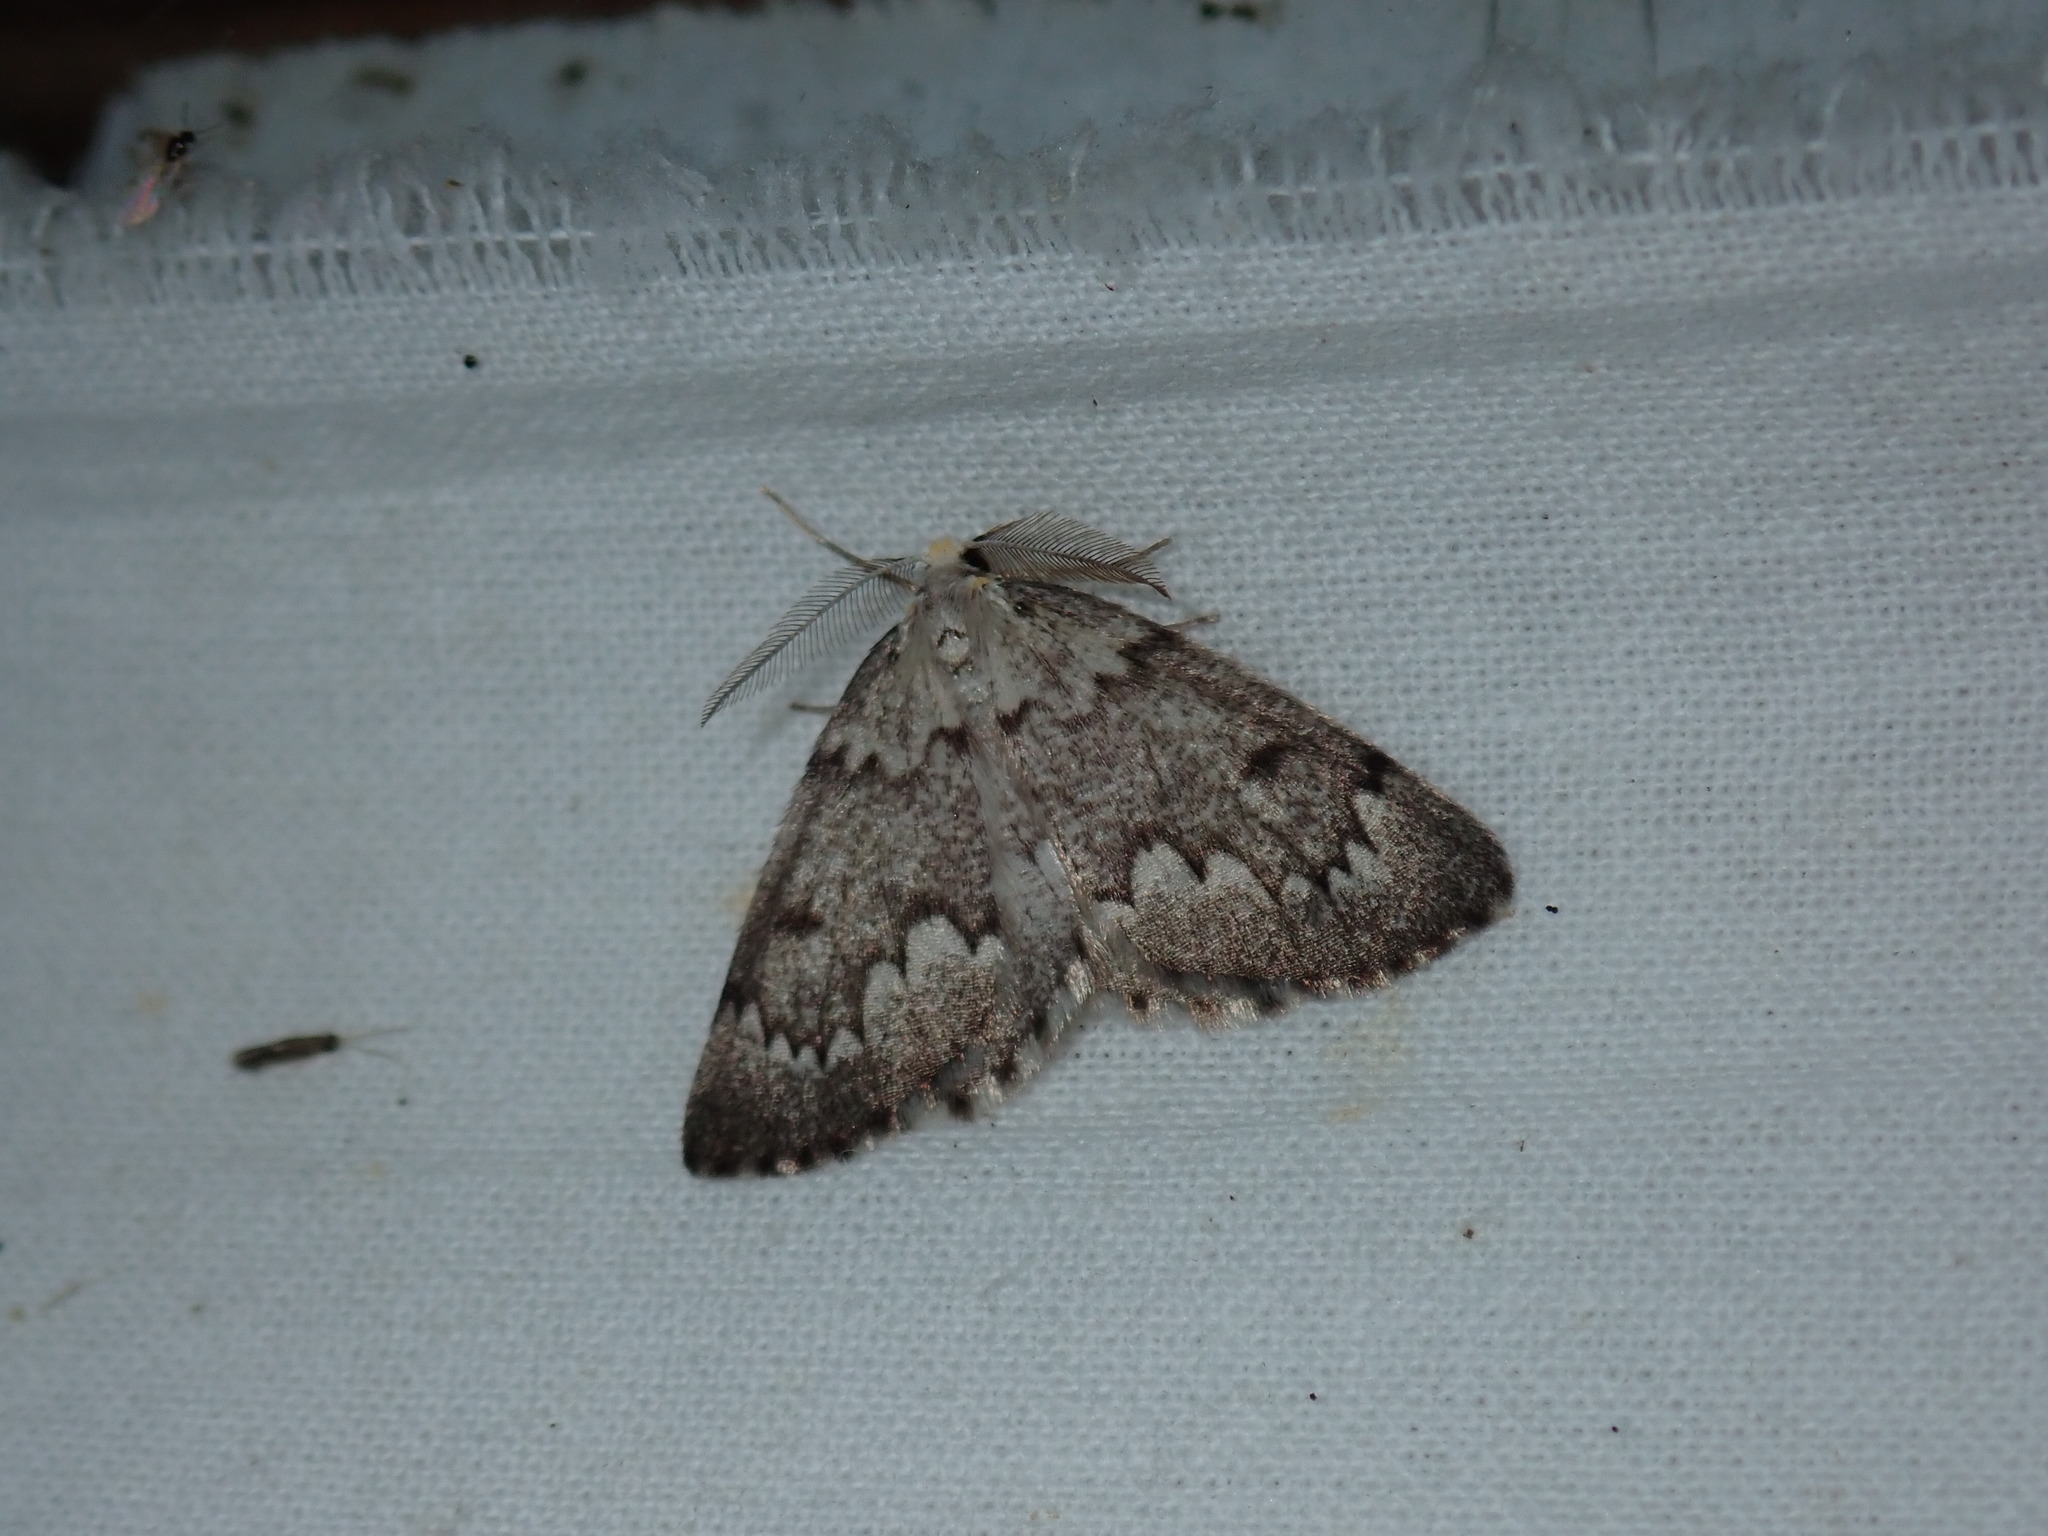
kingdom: Animalia
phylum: Arthropoda
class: Insecta
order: Lepidoptera
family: Geometridae
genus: Nepytia
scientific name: Nepytia canosaria
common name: False hemlock looper
